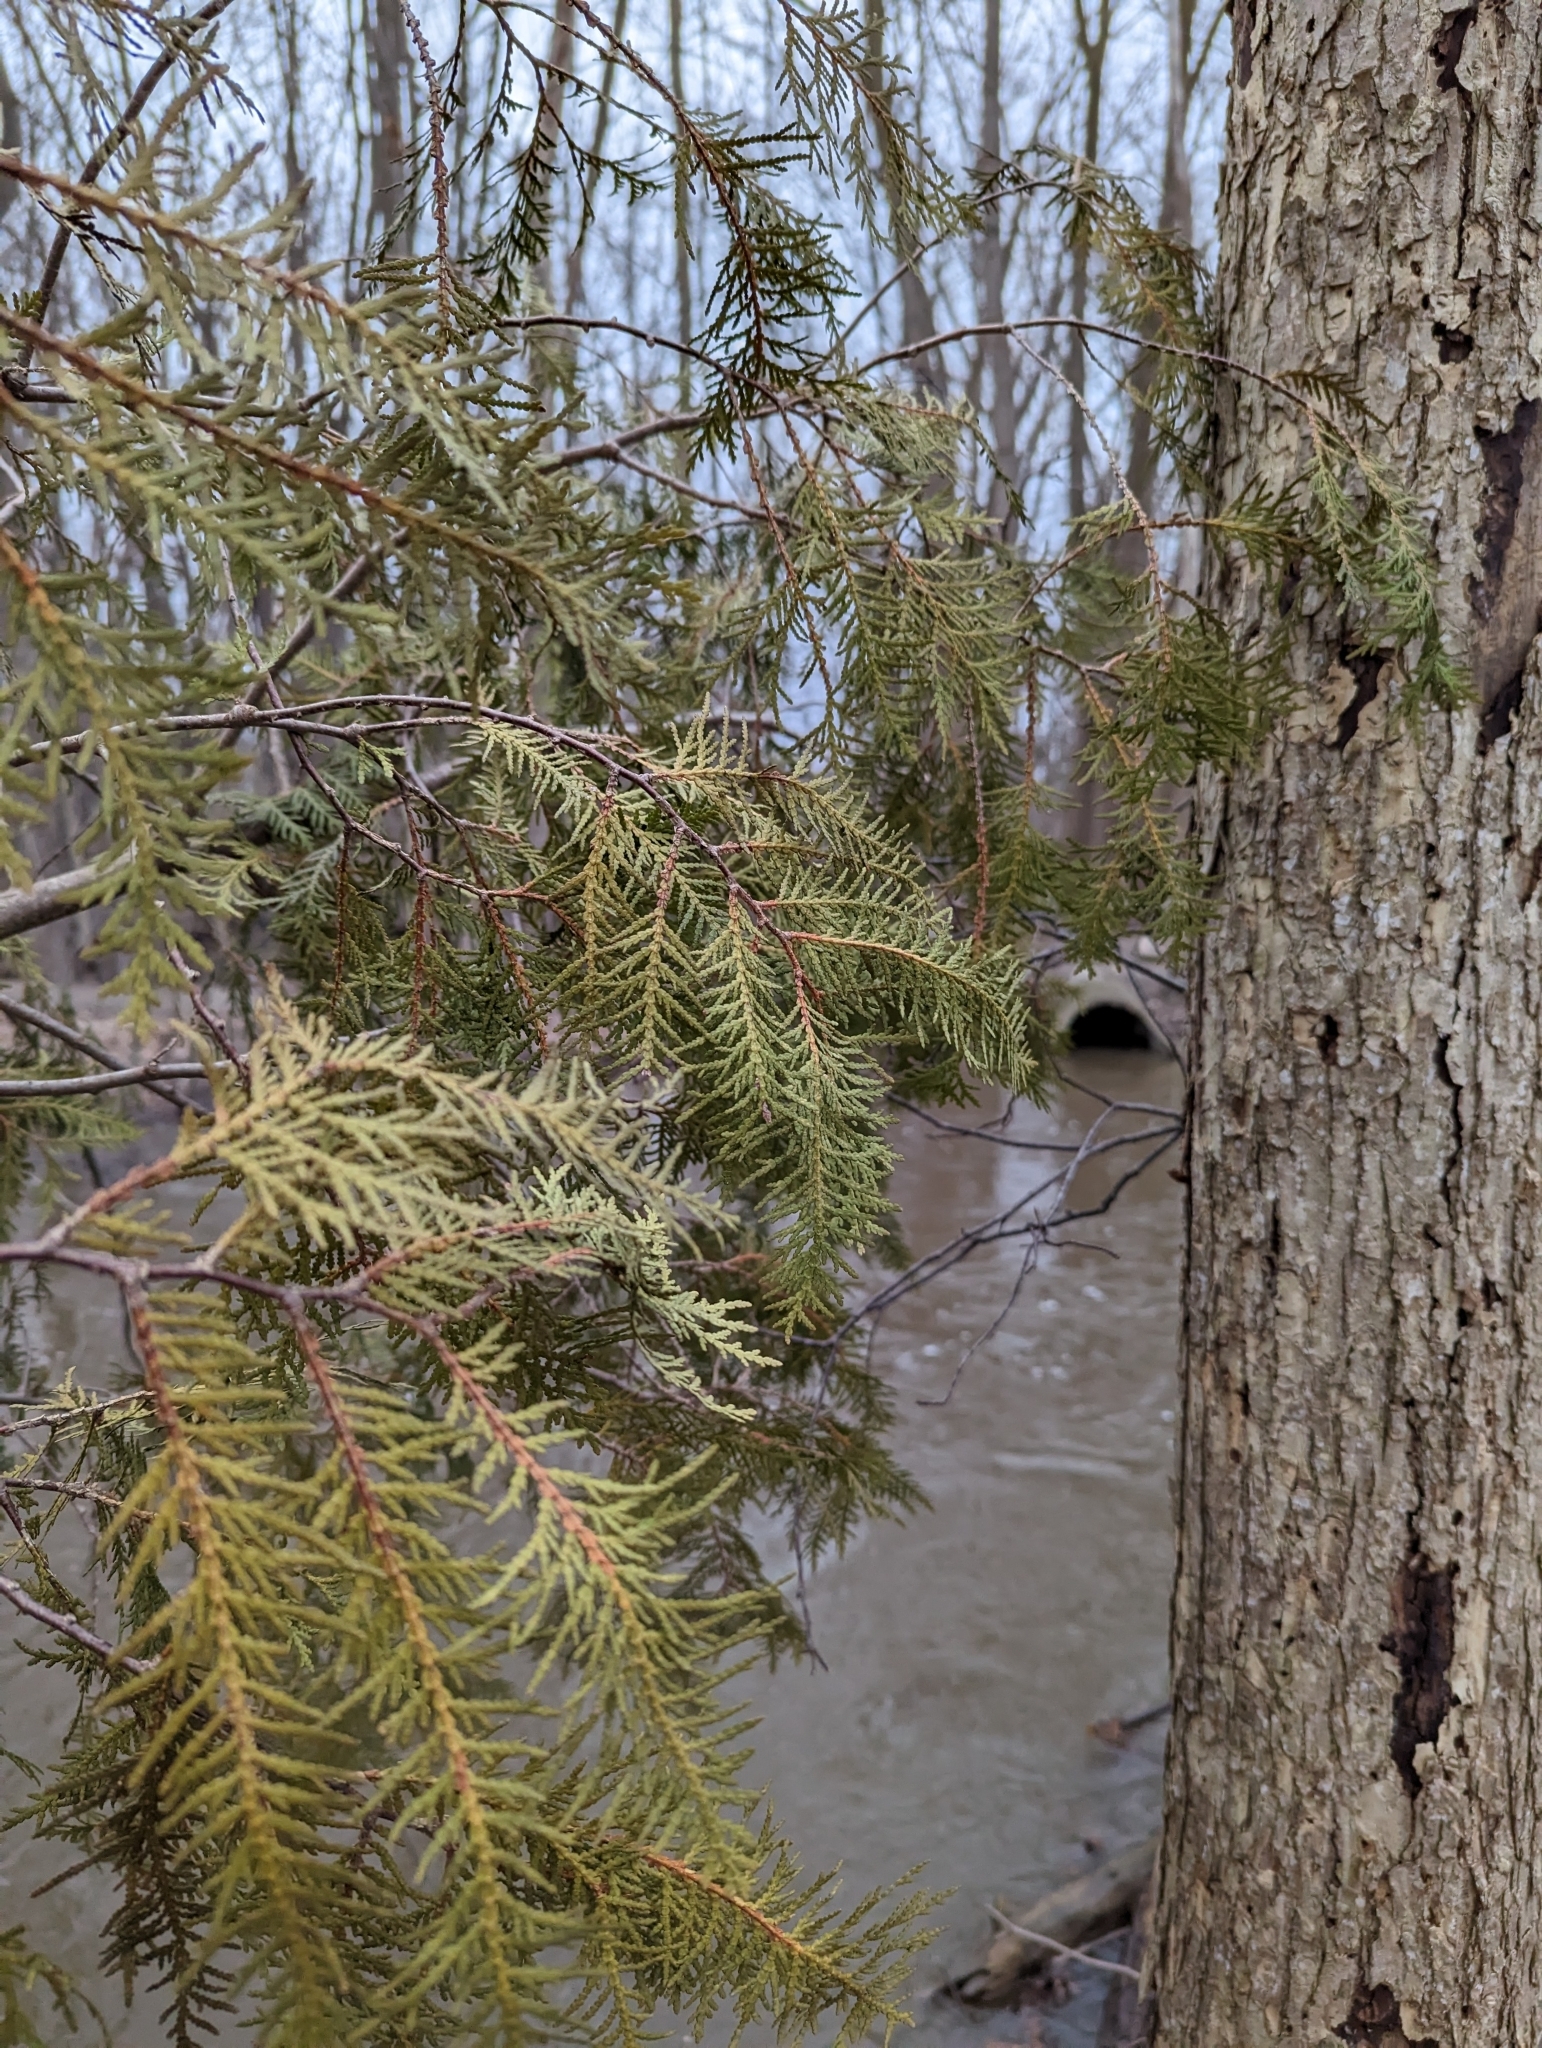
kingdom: Plantae
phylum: Tracheophyta
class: Pinopsida
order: Pinales
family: Cupressaceae
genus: Thuja
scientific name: Thuja occidentalis
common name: Northern white-cedar
